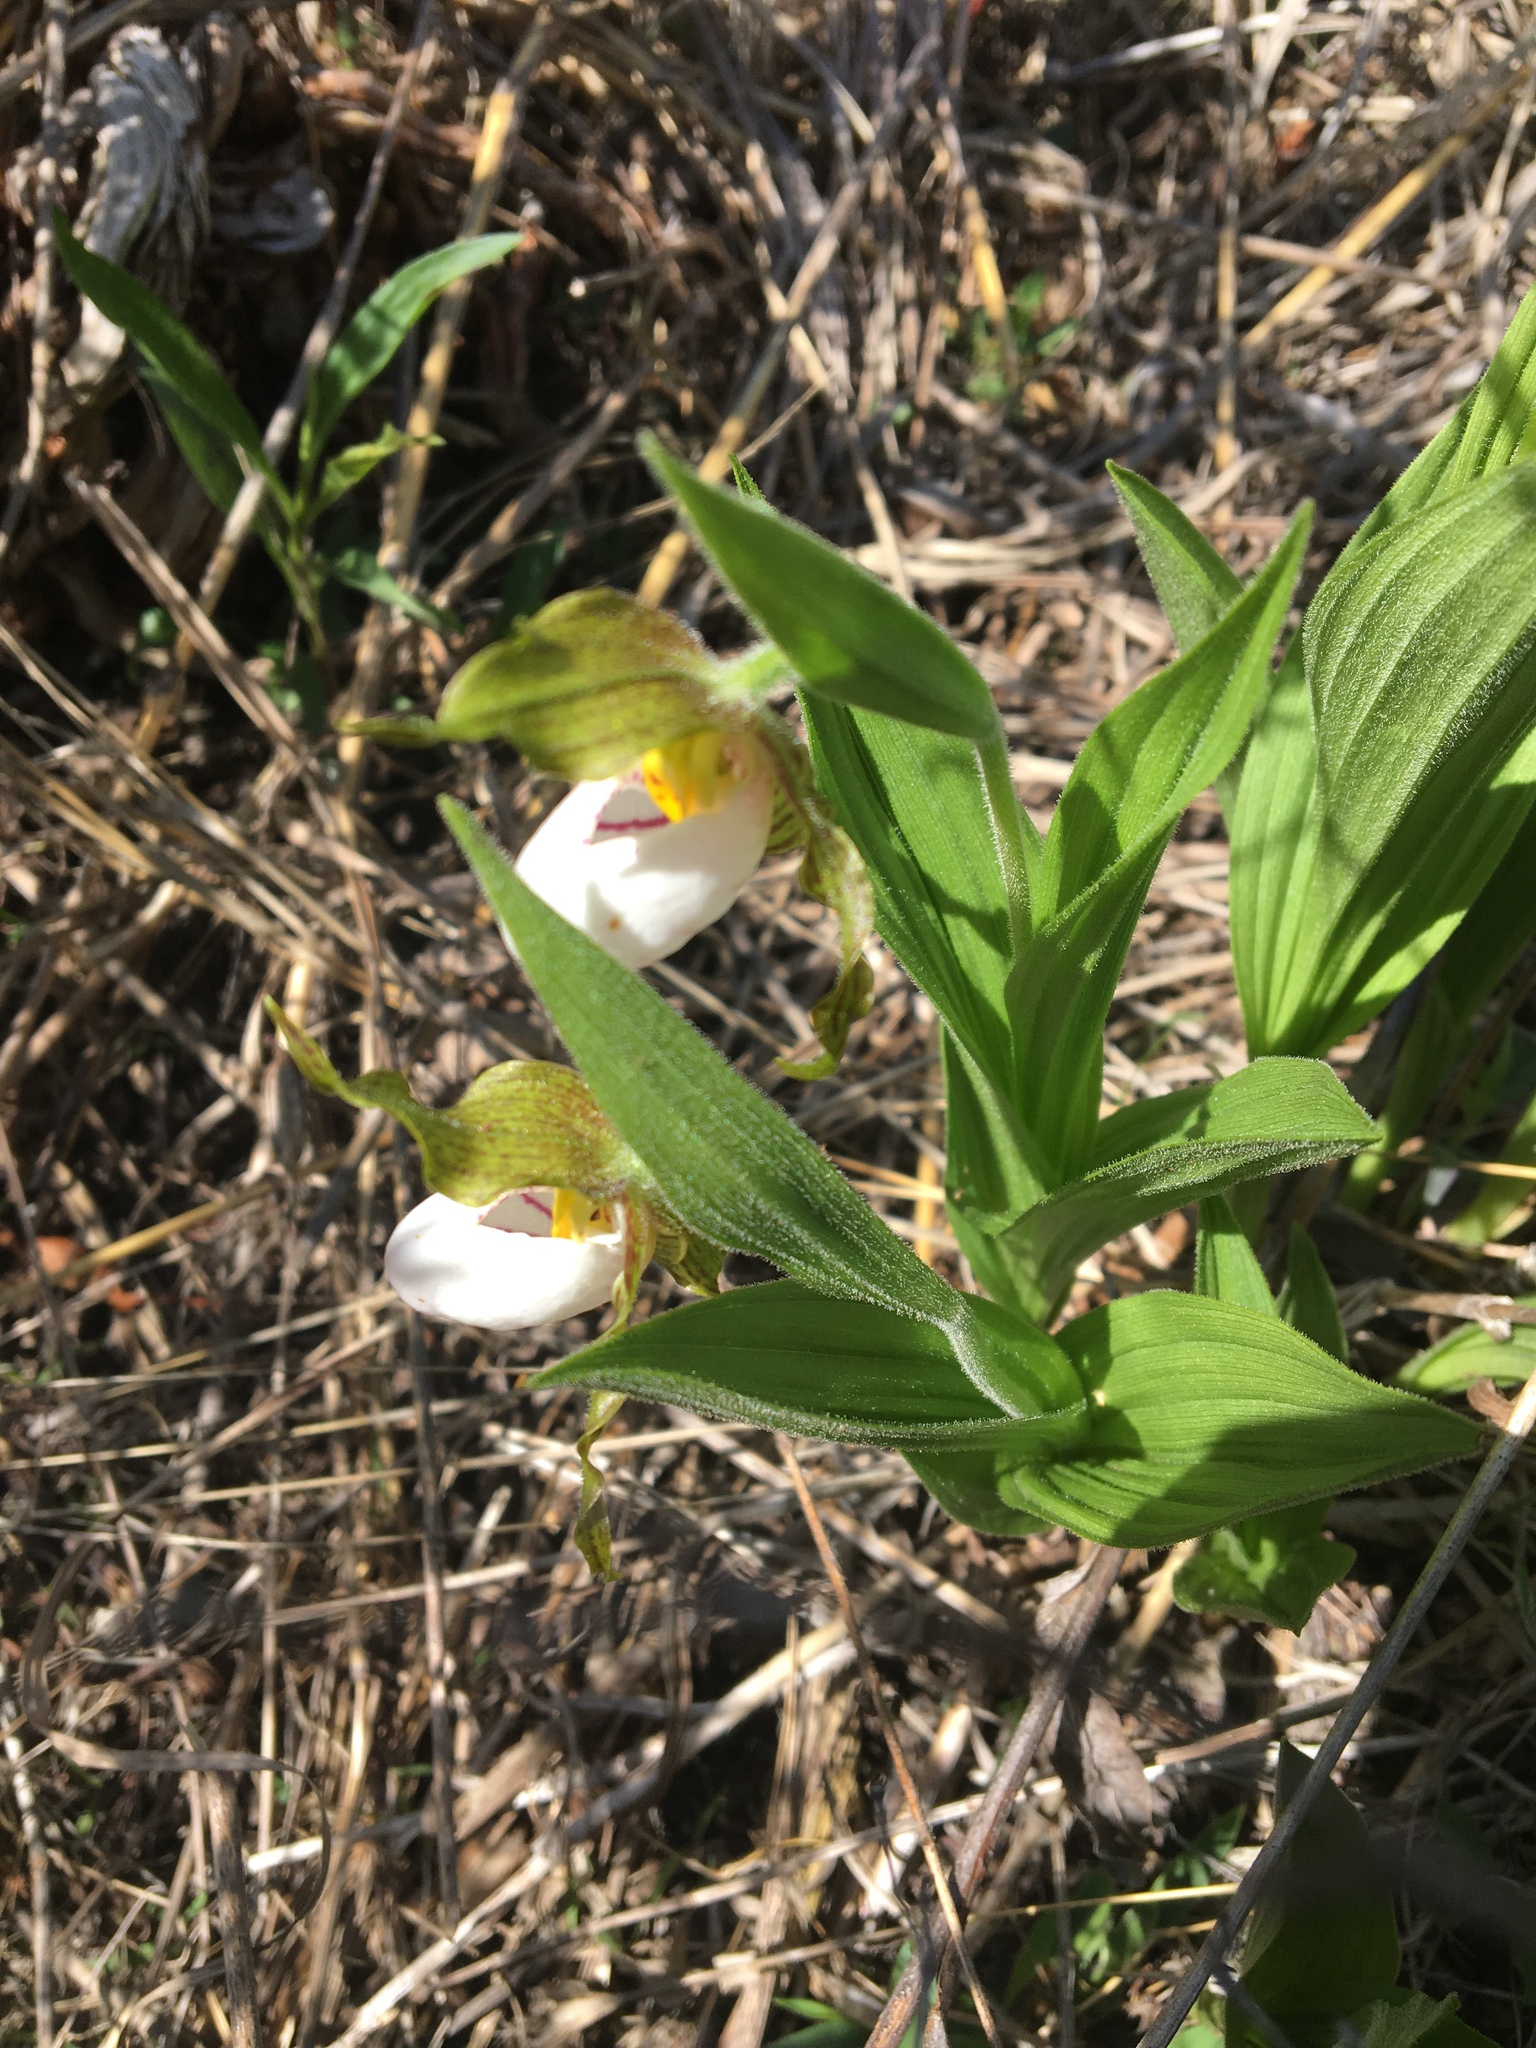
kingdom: Plantae
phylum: Tracheophyta
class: Liliopsida
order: Asparagales
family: Orchidaceae
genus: Cypripedium
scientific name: Cypripedium candidum
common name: White lady's-slipper
